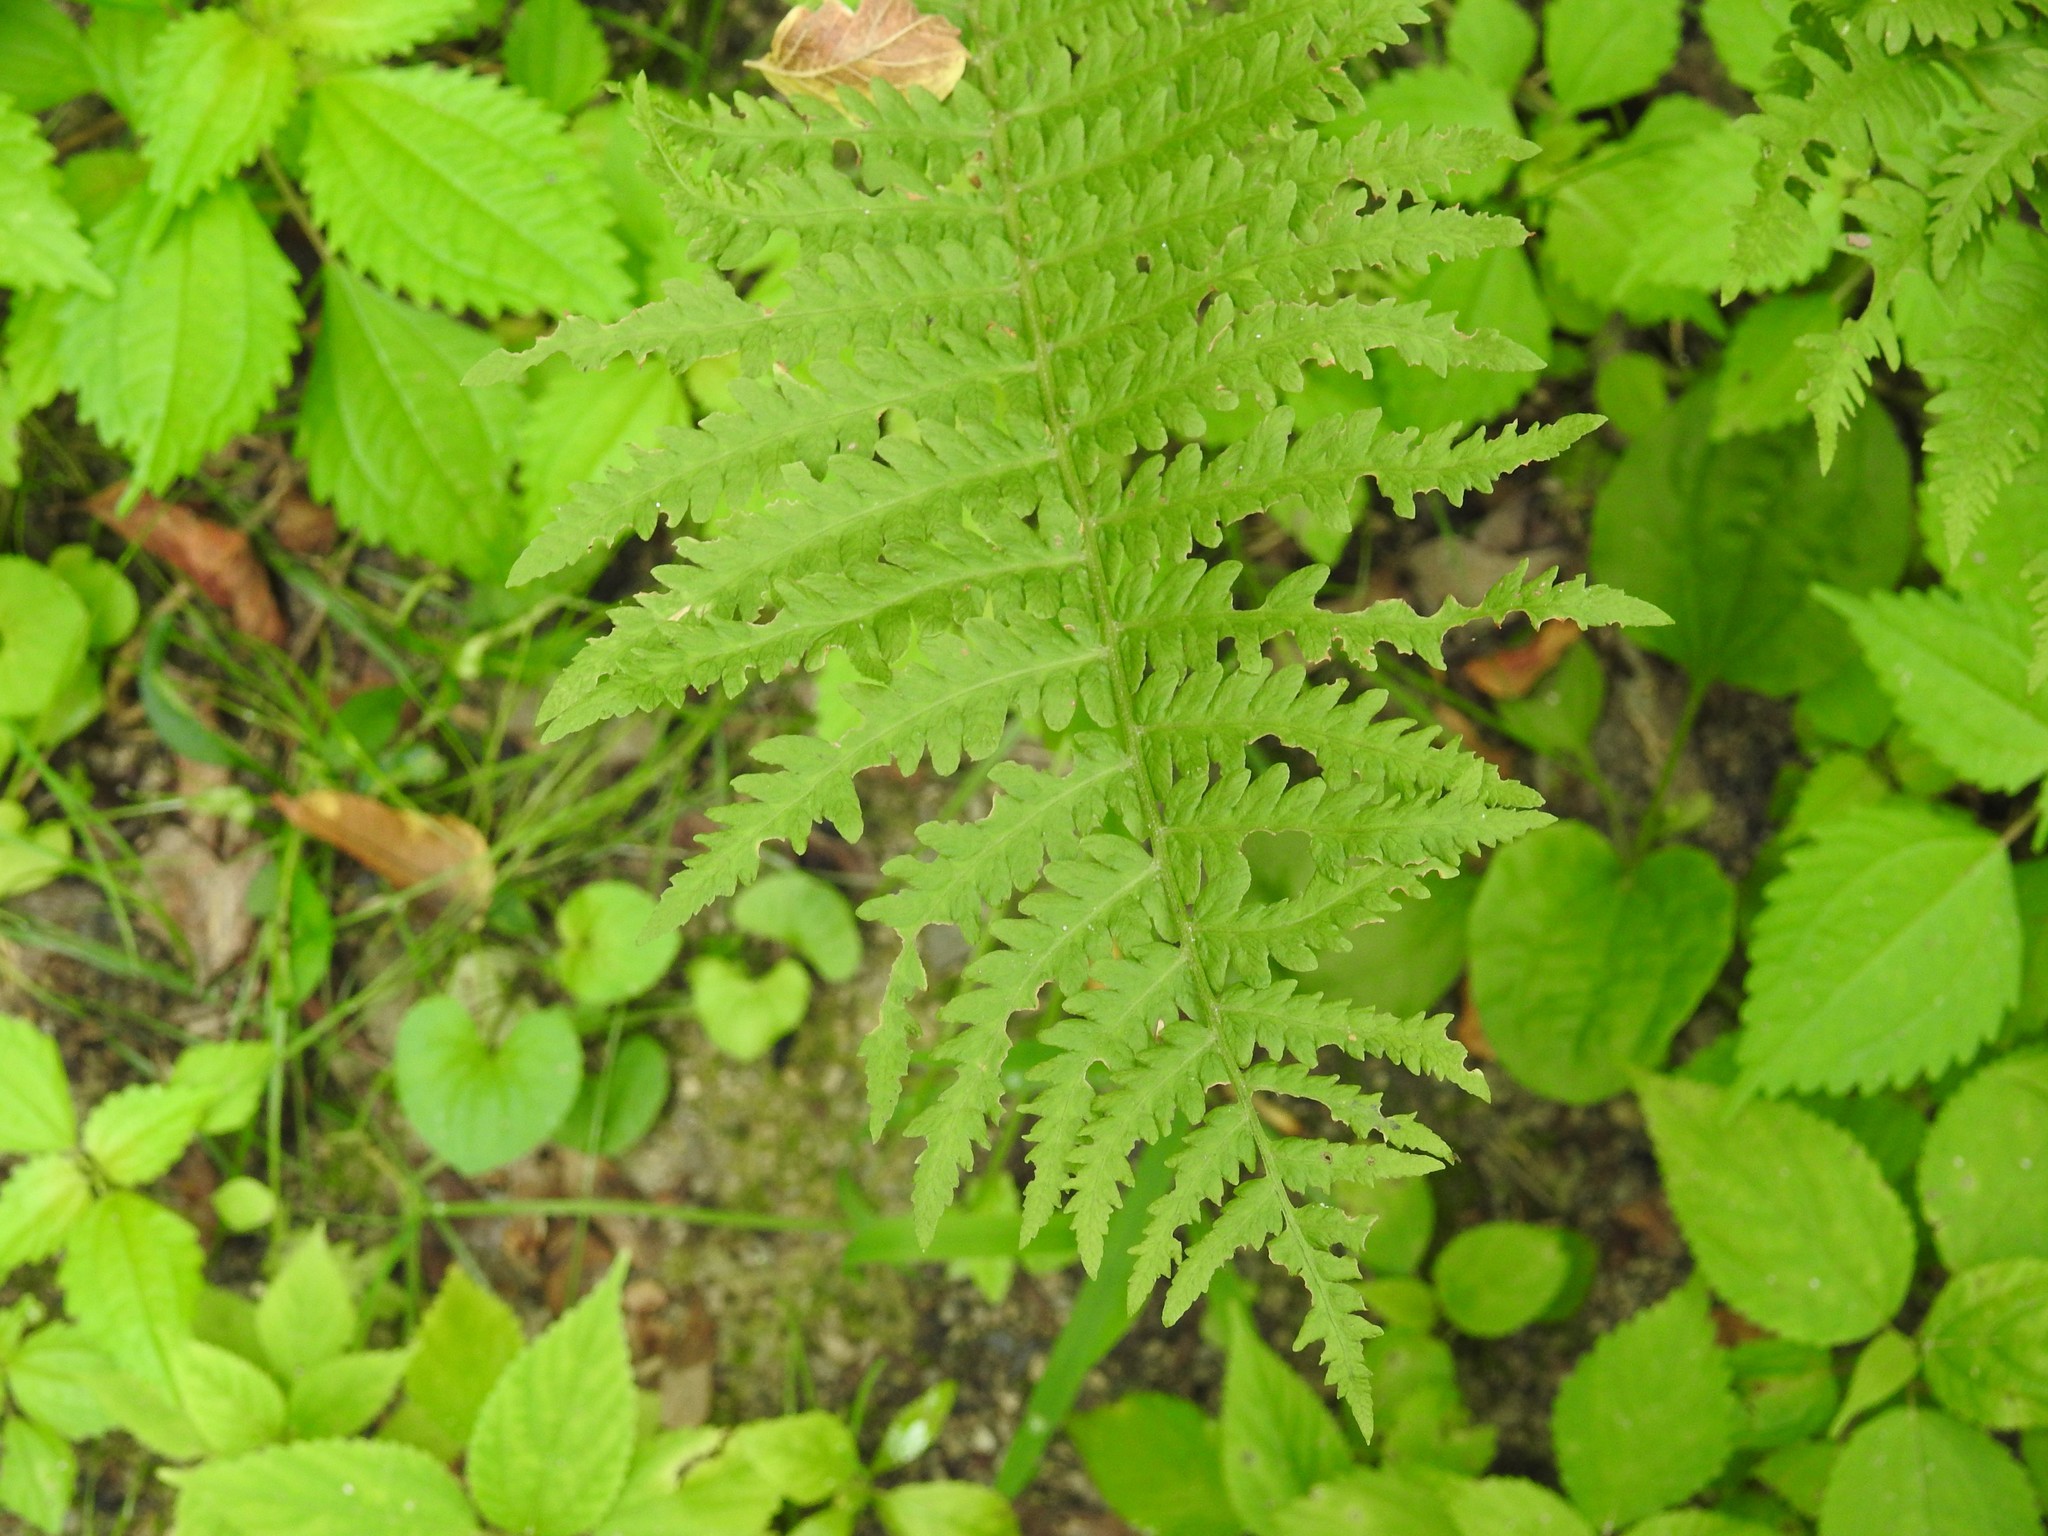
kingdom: Plantae
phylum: Tracheophyta
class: Polypodiopsida
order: Polypodiales
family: Onocleaceae
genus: Matteuccia
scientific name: Matteuccia struthiopteris
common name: Ostrich fern
